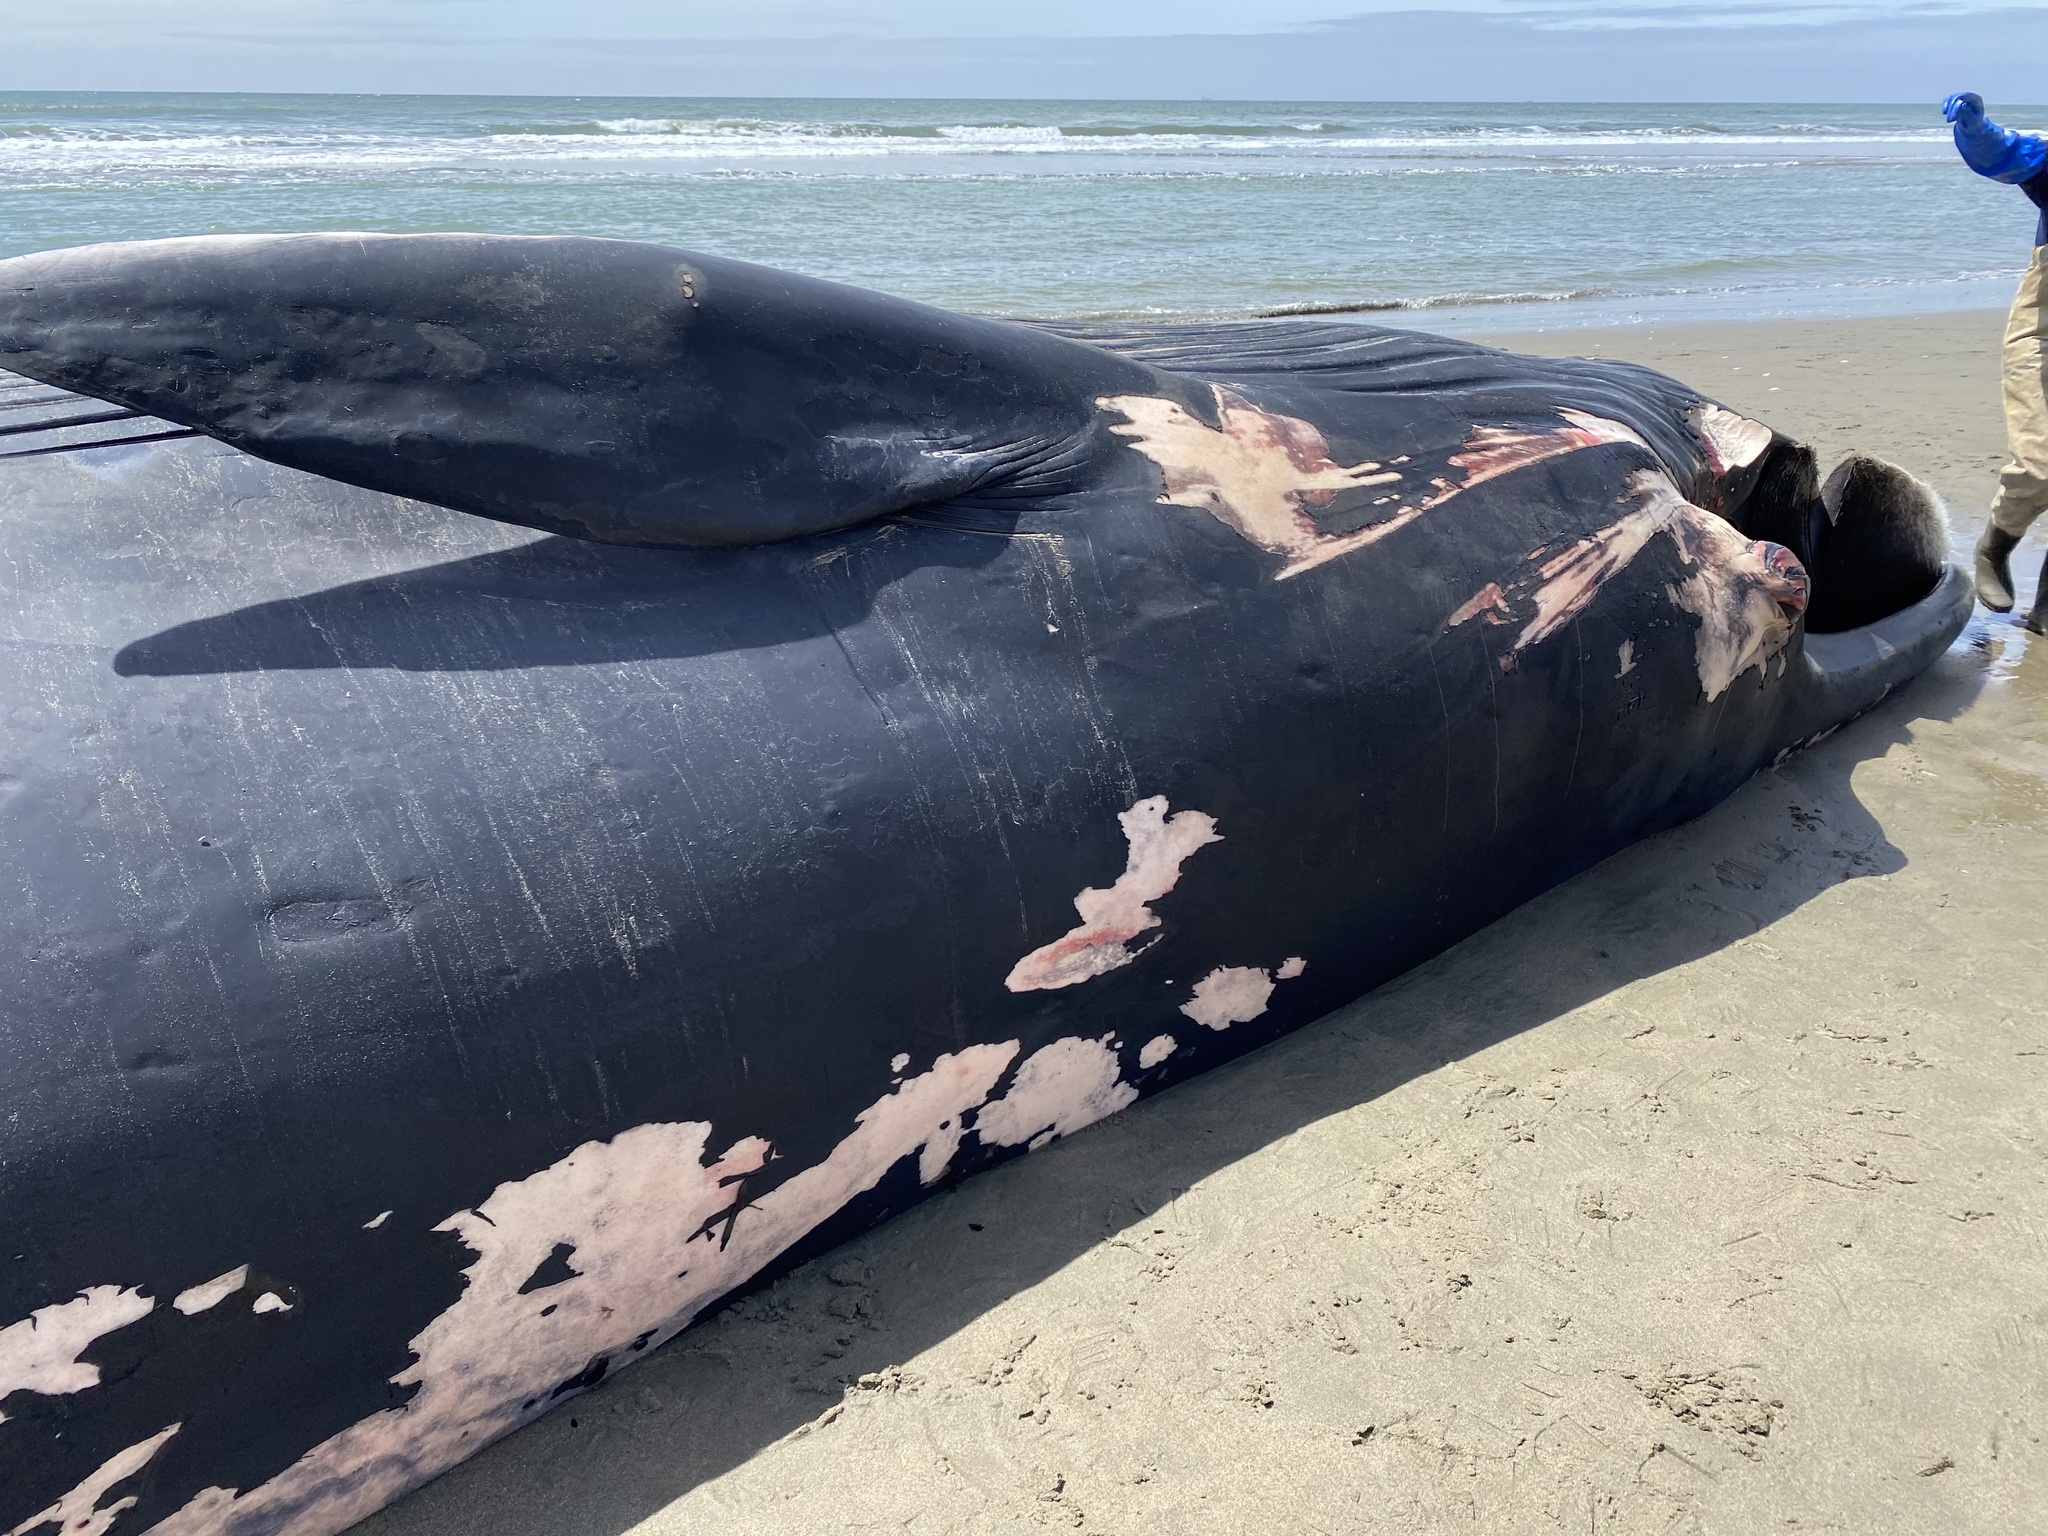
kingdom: Animalia
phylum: Chordata
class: Mammalia
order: Cetacea
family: Balaenopteridae
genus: Balaenoptera
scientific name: Balaenoptera physalus
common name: Fin whale
